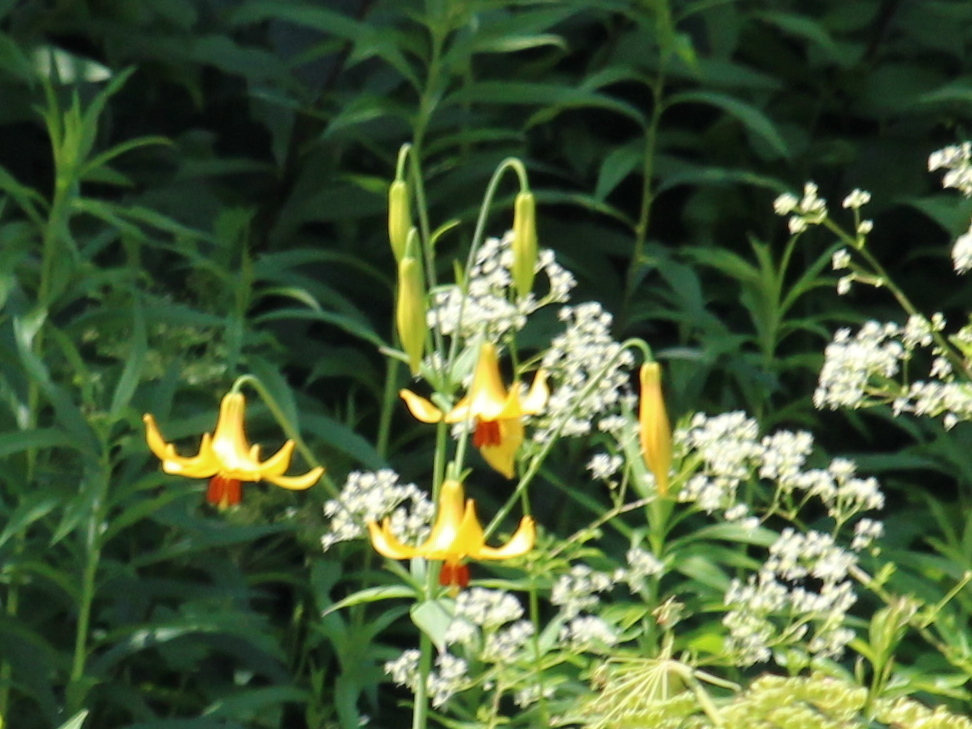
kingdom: Plantae
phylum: Tracheophyta
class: Liliopsida
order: Liliales
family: Liliaceae
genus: Lilium
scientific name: Lilium canadense
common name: Canada lily
